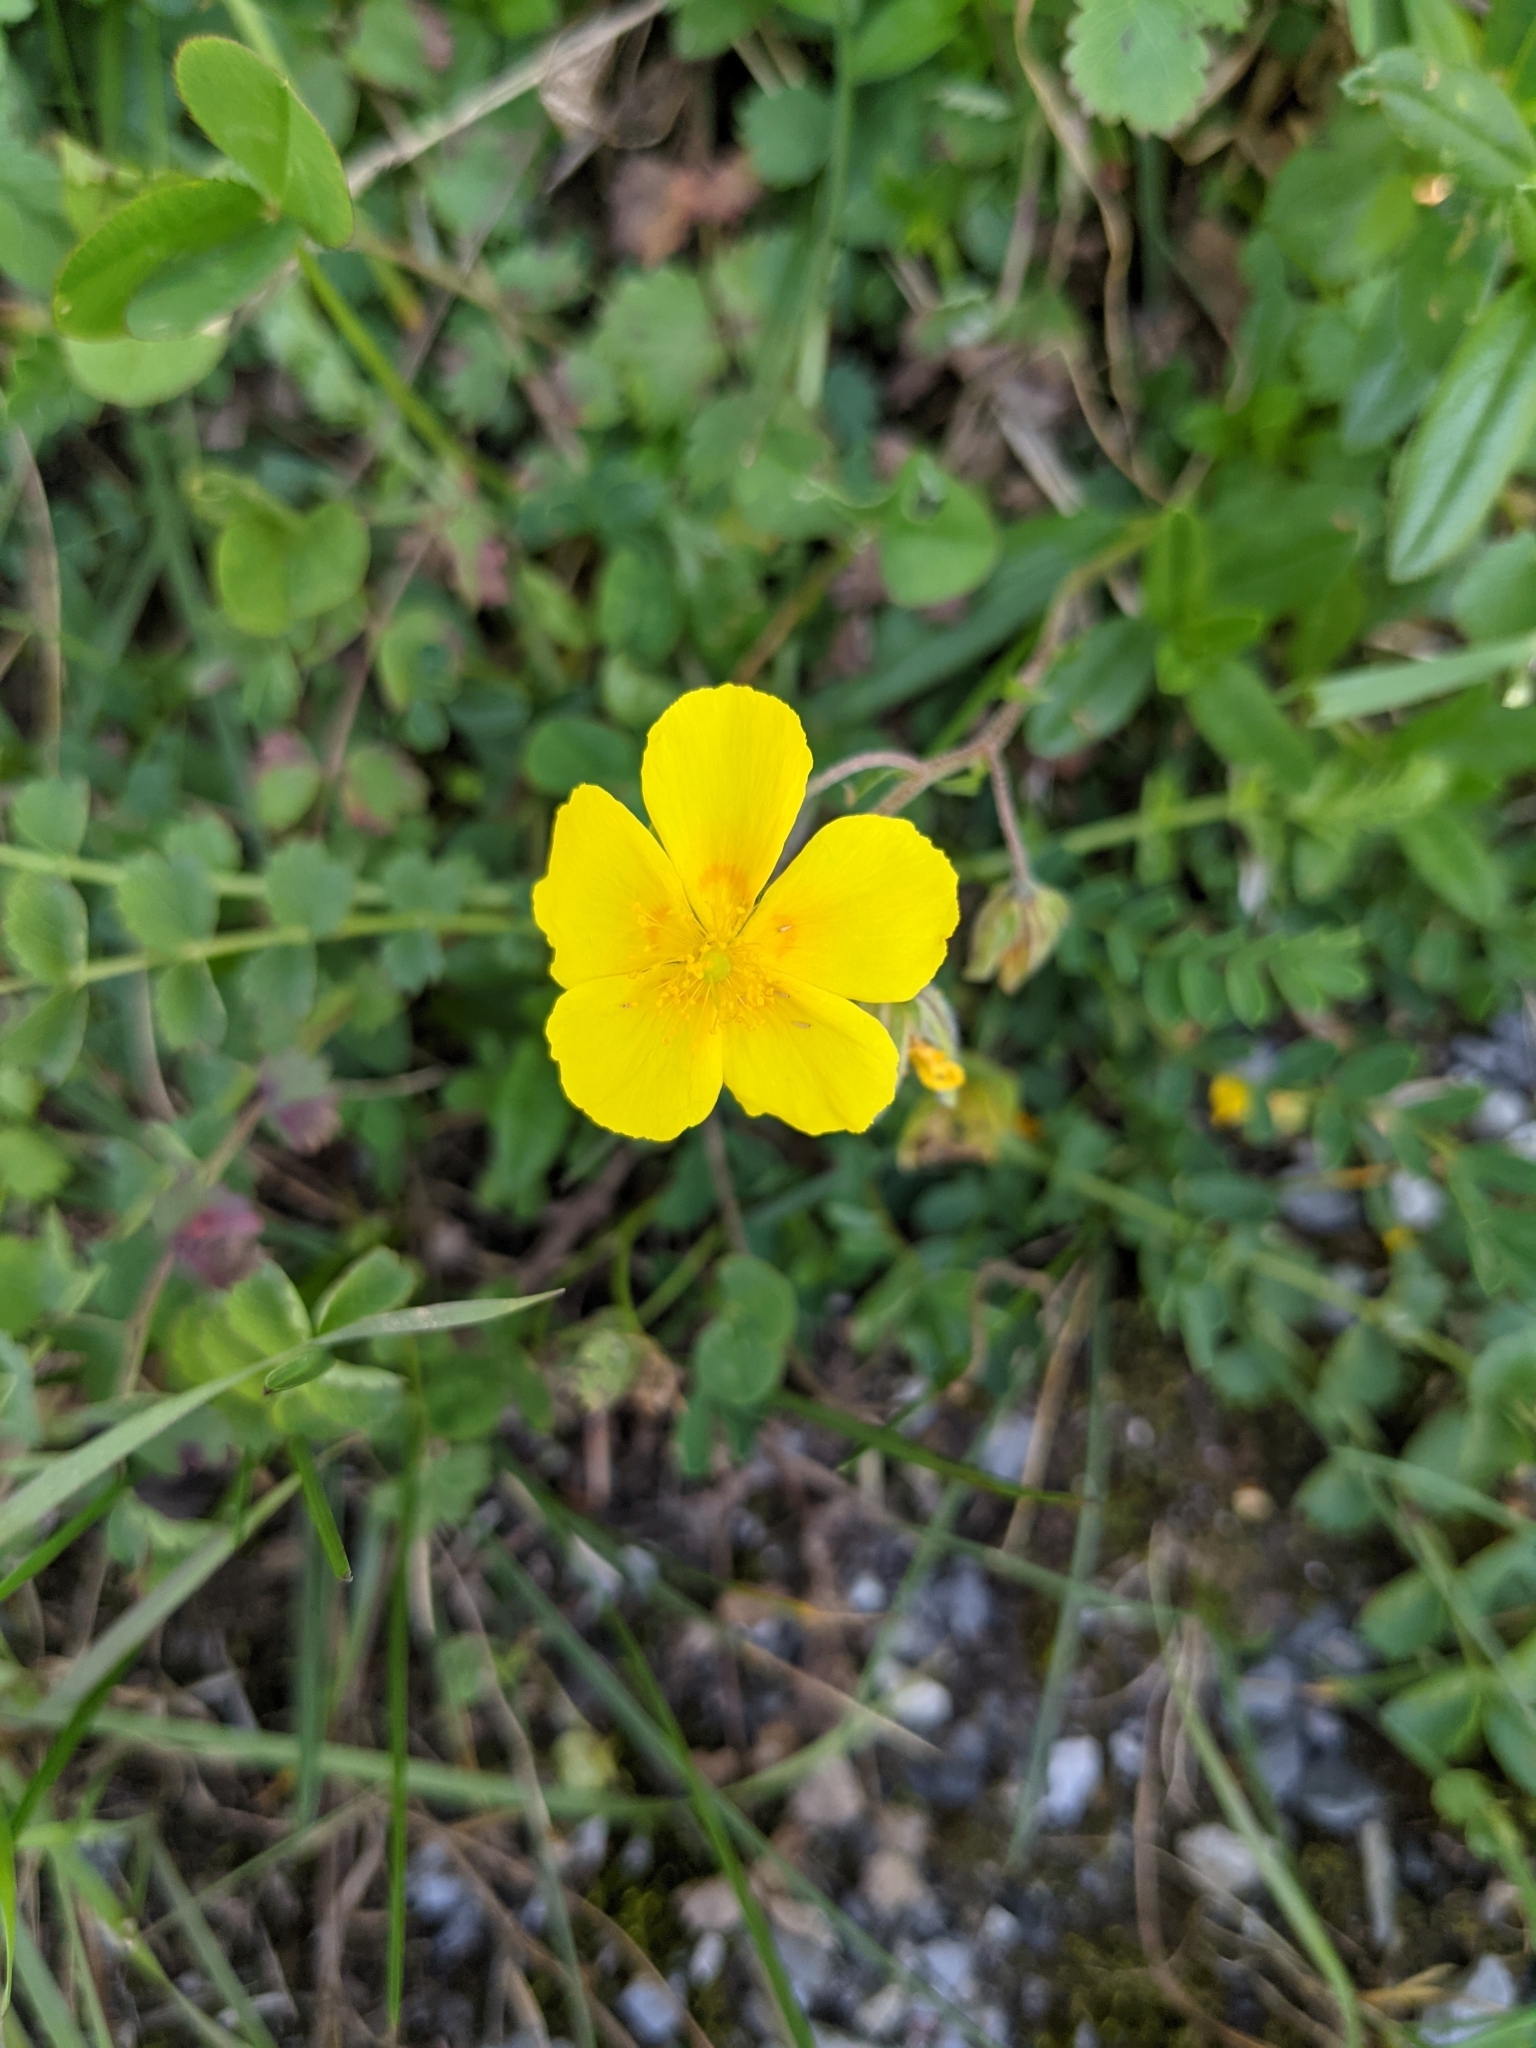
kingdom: Plantae
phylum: Tracheophyta
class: Magnoliopsida
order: Malvales
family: Cistaceae
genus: Helianthemum
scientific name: Helianthemum nummularium
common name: Common rock-rose
